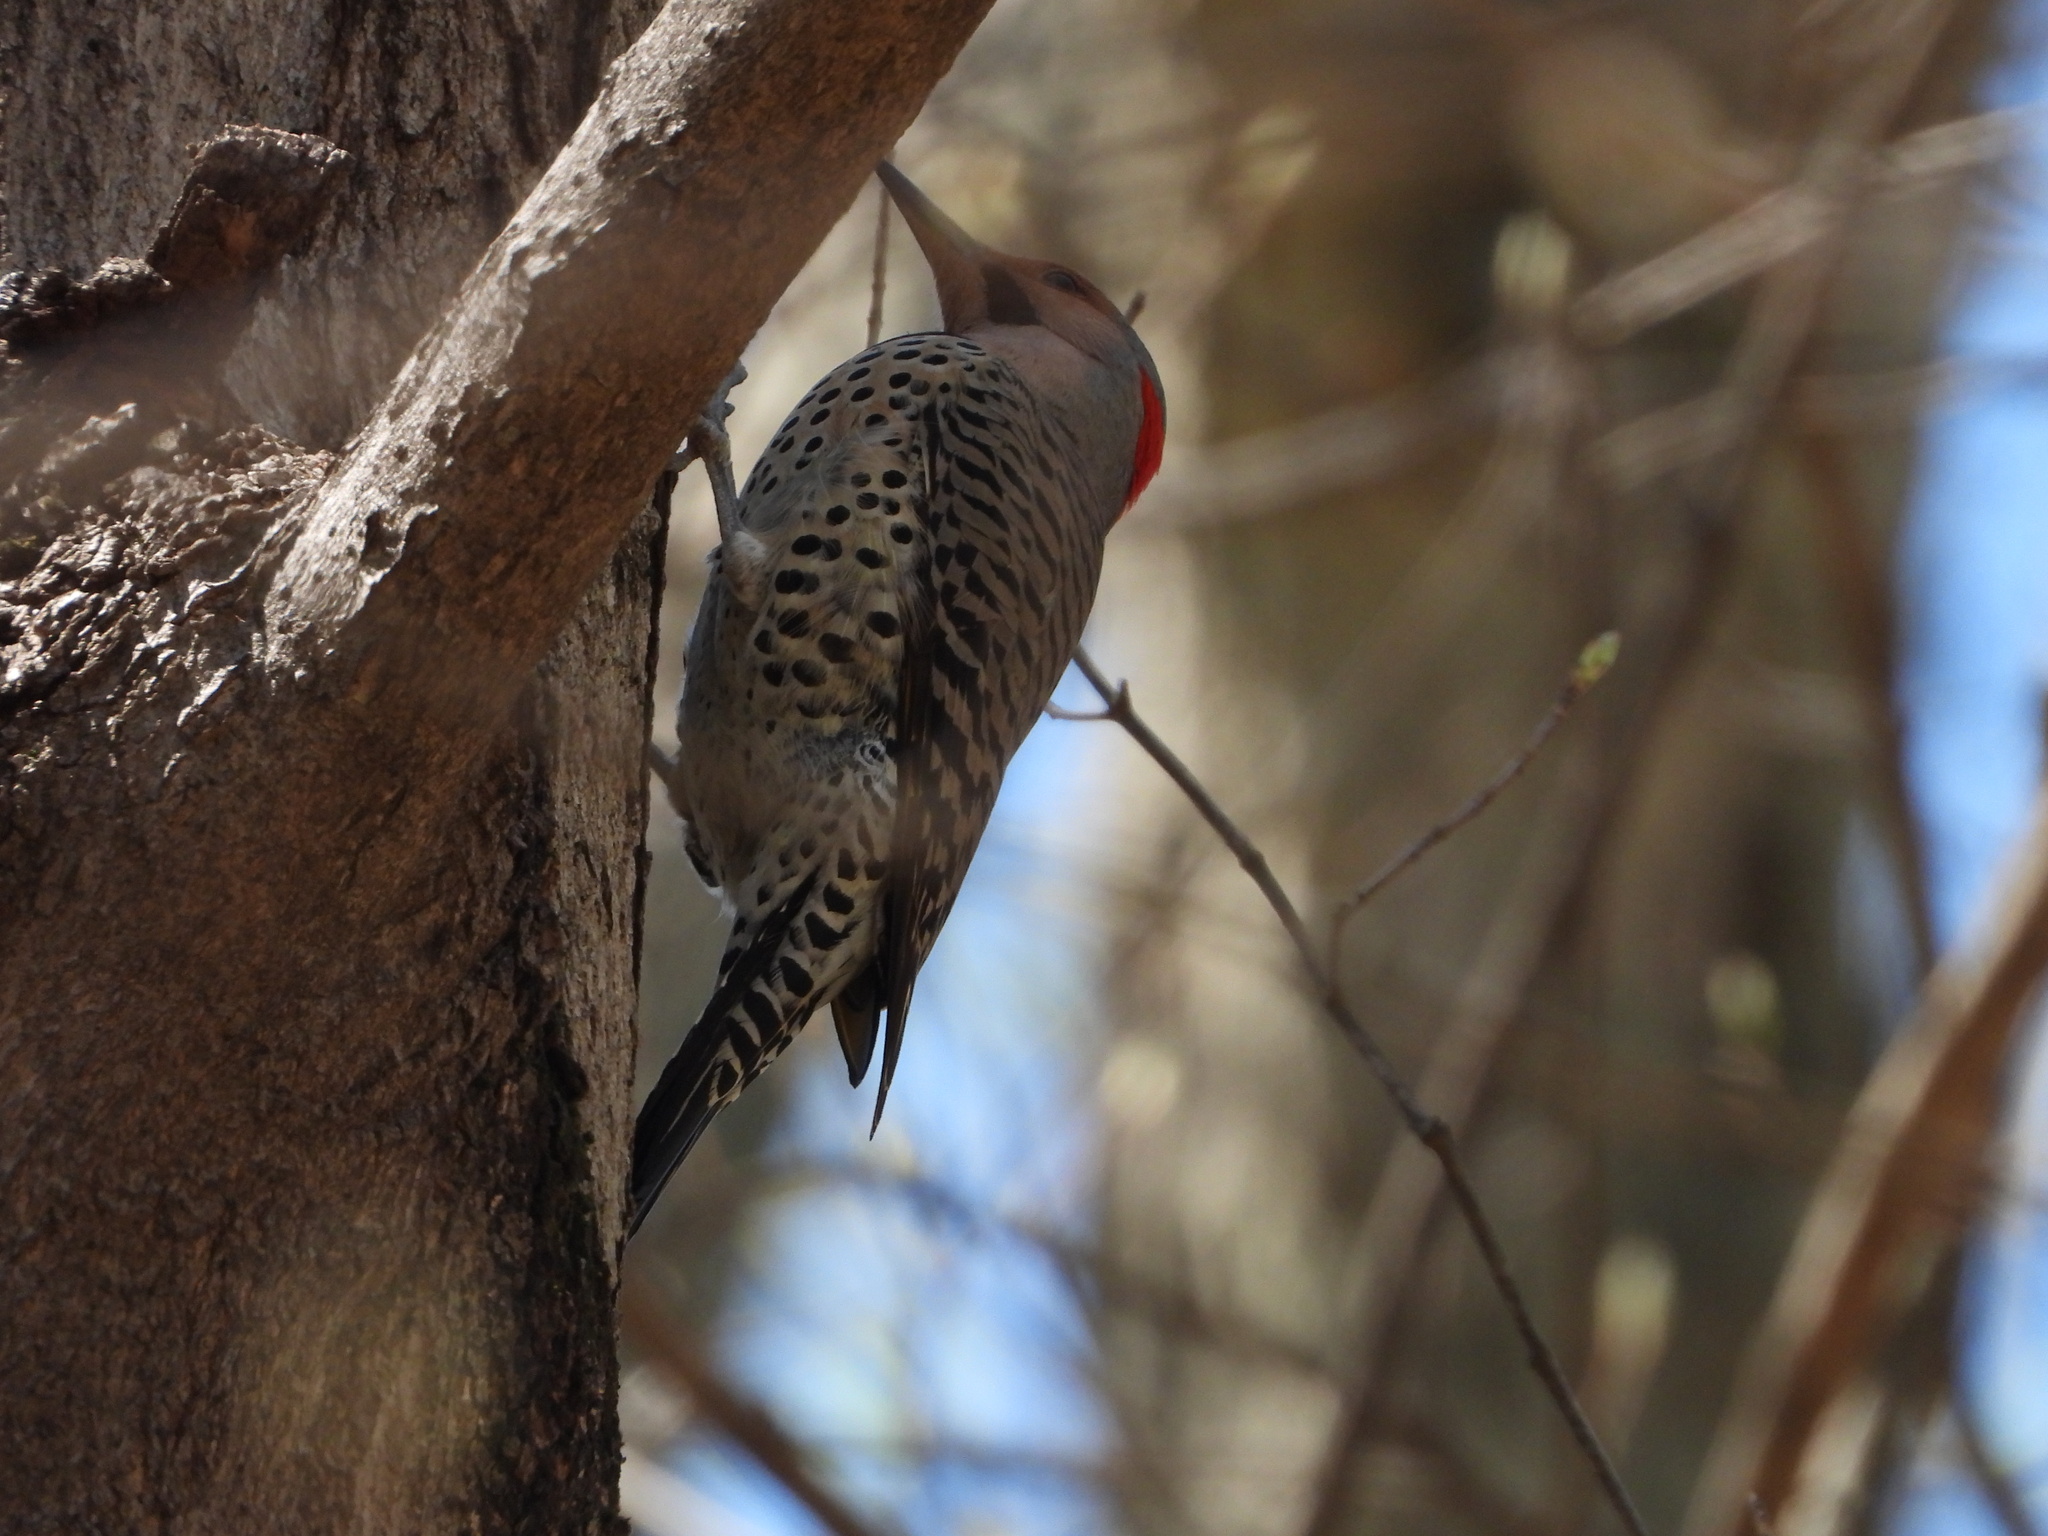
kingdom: Animalia
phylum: Chordata
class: Aves
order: Piciformes
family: Picidae
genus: Colaptes
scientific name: Colaptes auratus
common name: Northern flicker
